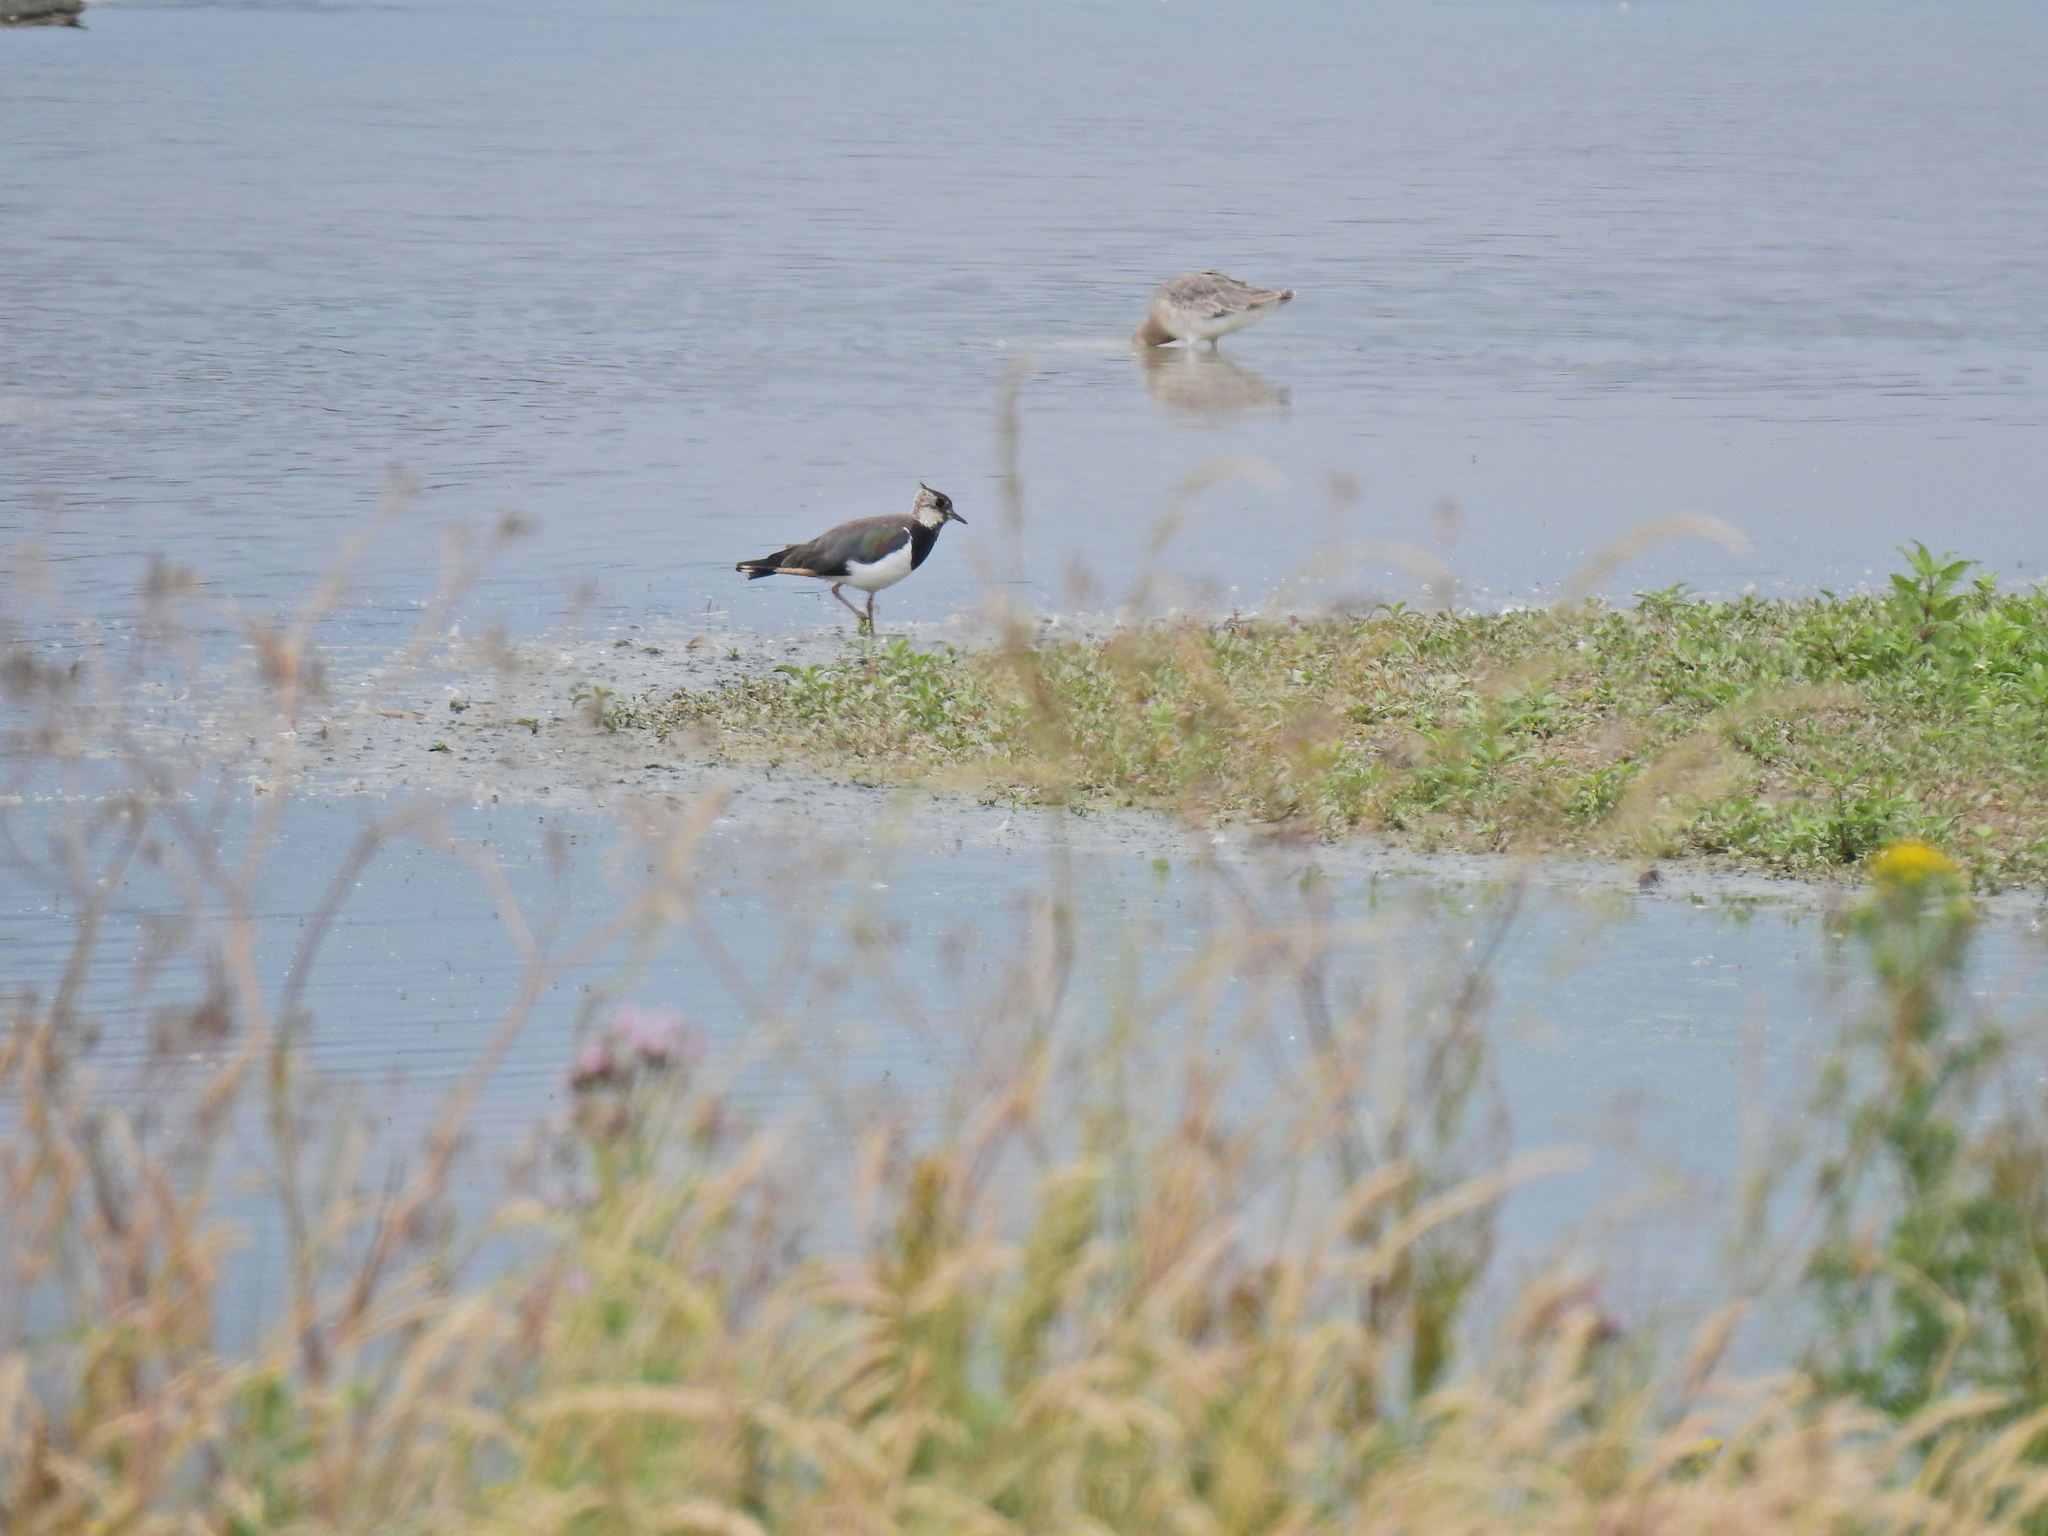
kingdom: Animalia
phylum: Chordata
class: Aves
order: Charadriiformes
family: Charadriidae
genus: Vanellus
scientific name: Vanellus vanellus
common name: Northern lapwing
